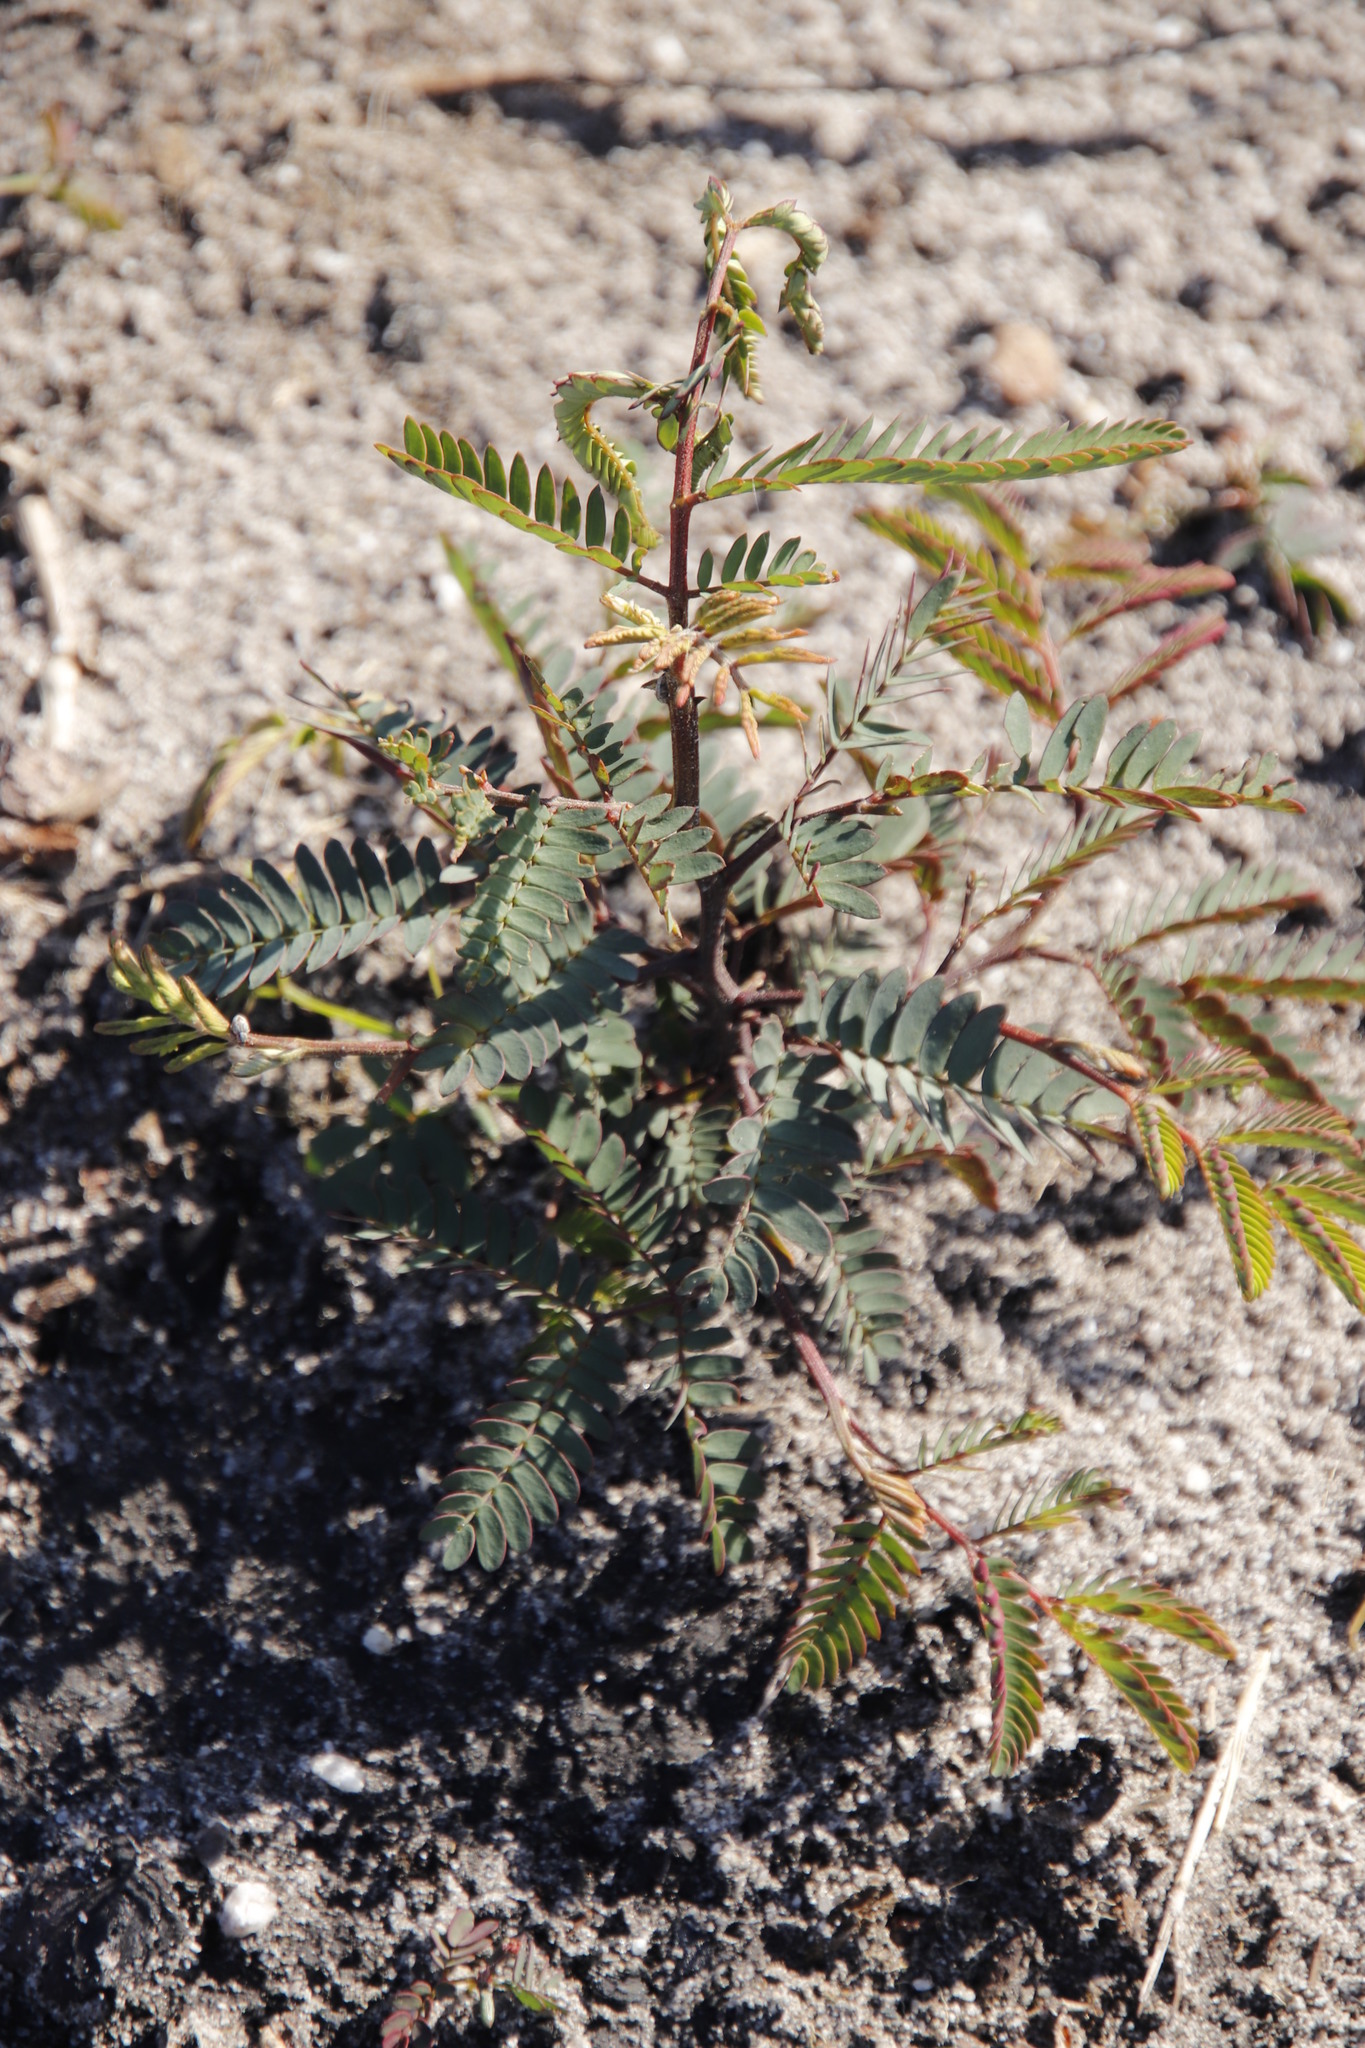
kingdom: Plantae
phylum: Tracheophyta
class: Magnoliopsida
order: Fabales
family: Fabaceae
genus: Paraserianthes
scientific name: Paraserianthes lophantha
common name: Plume albizia
